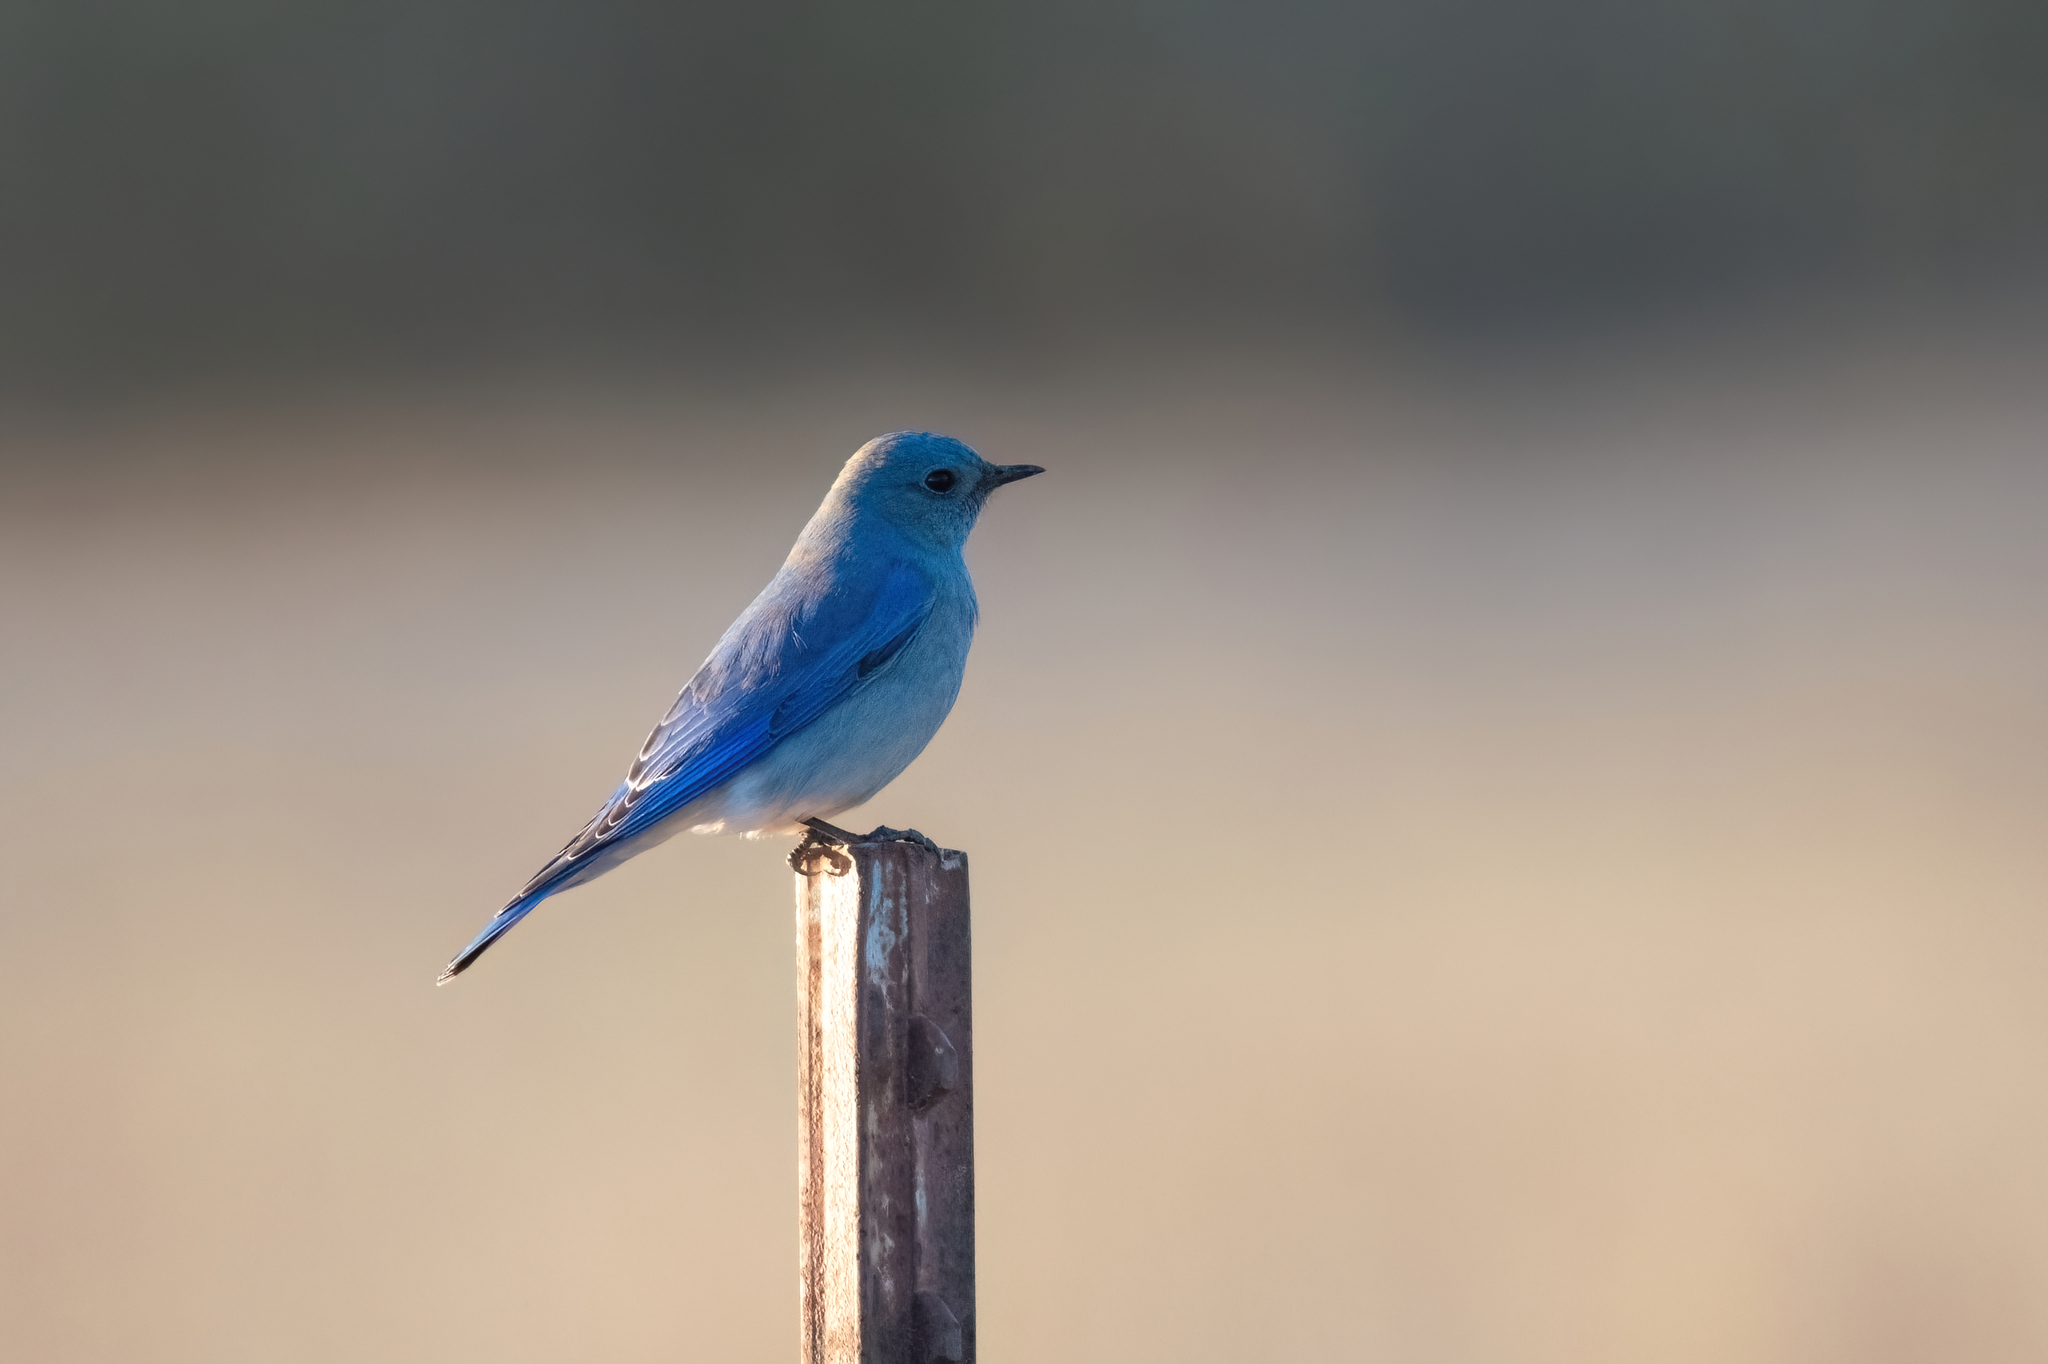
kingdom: Animalia
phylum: Chordata
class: Aves
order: Passeriformes
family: Turdidae
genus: Sialia
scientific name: Sialia currucoides
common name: Mountain bluebird
